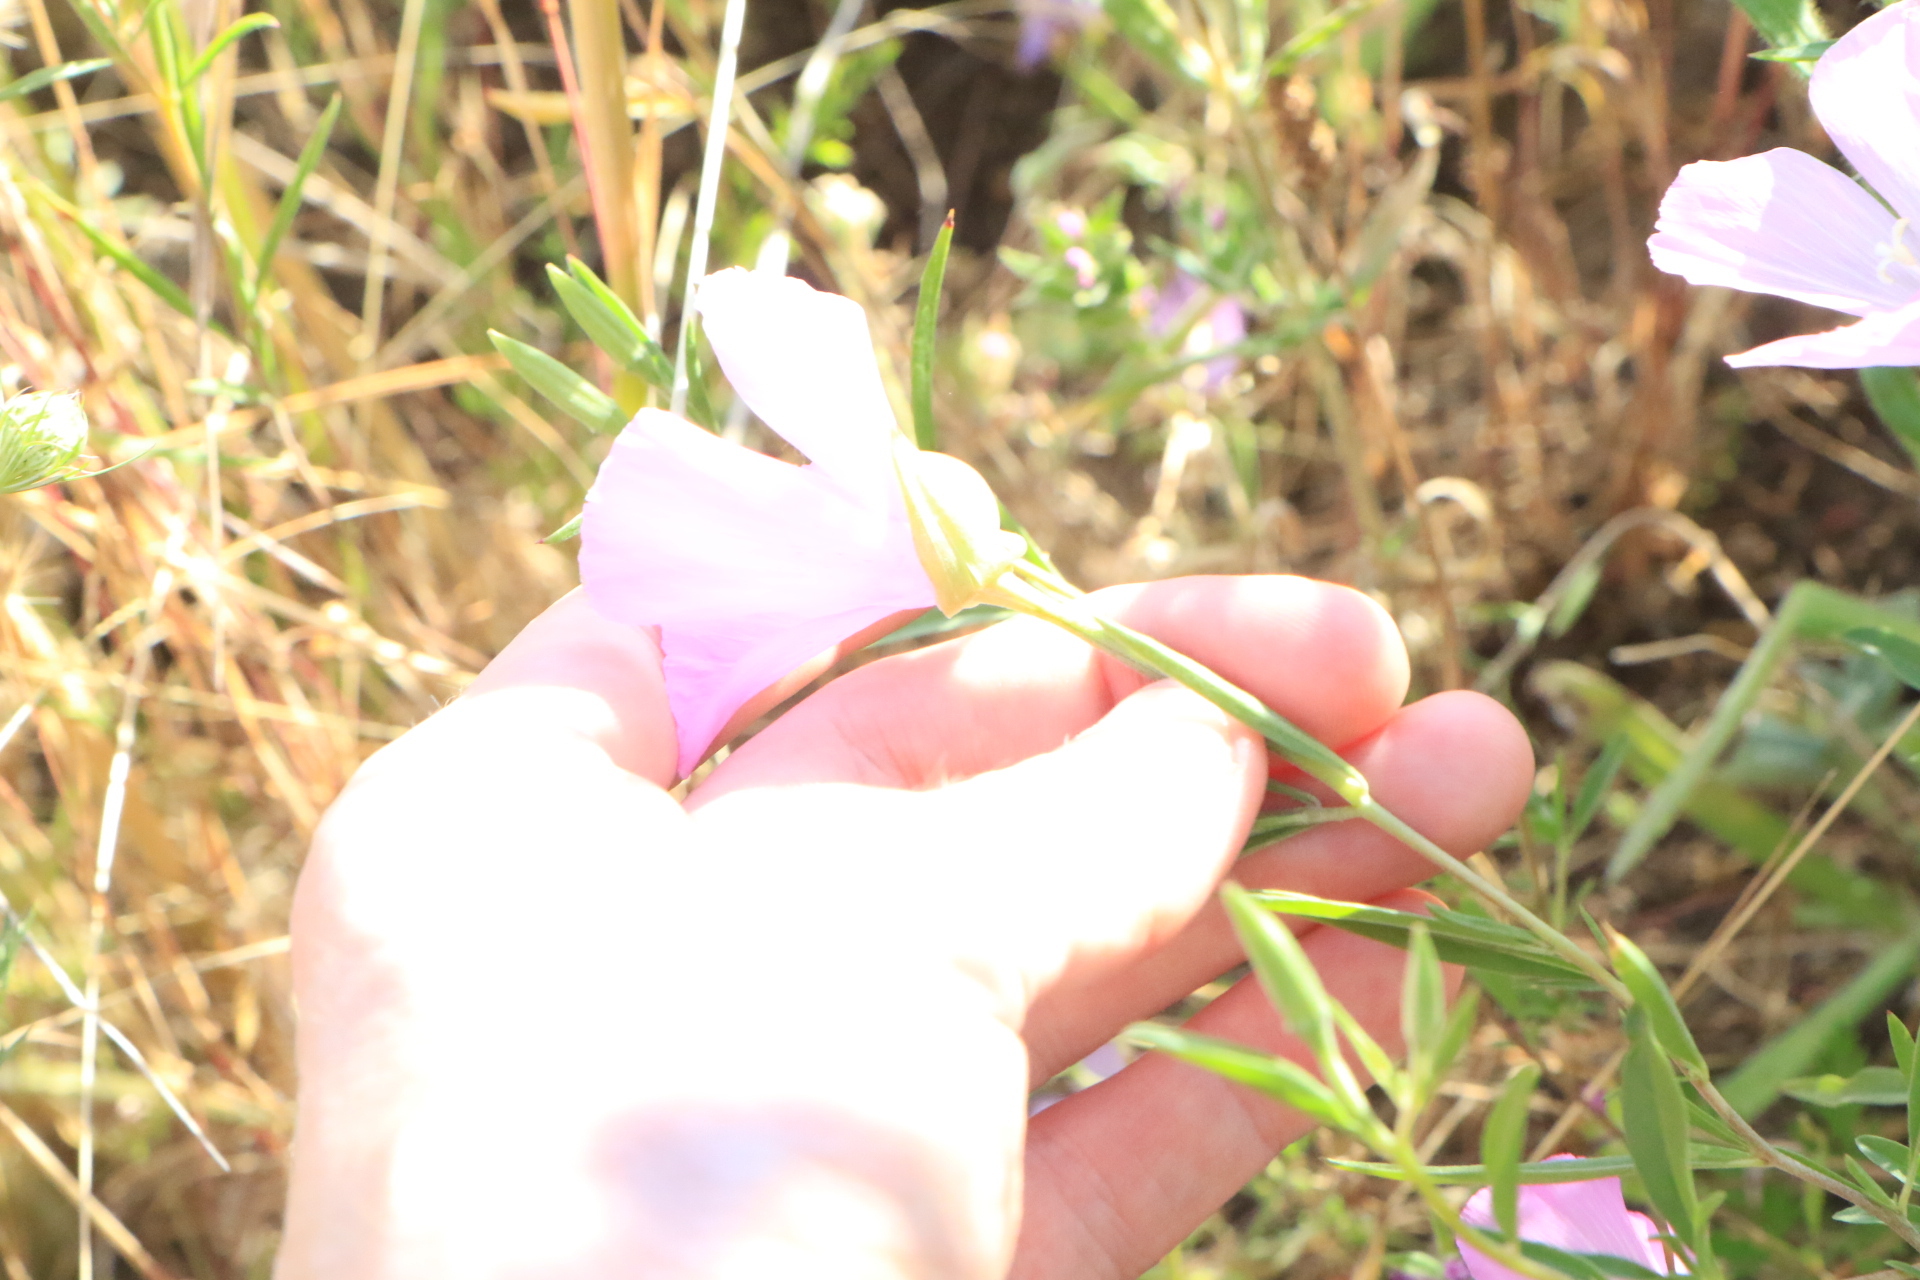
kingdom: Plantae
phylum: Tracheophyta
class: Magnoliopsida
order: Myrtales
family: Onagraceae
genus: Clarkia
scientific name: Clarkia amoena
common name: Godetia
